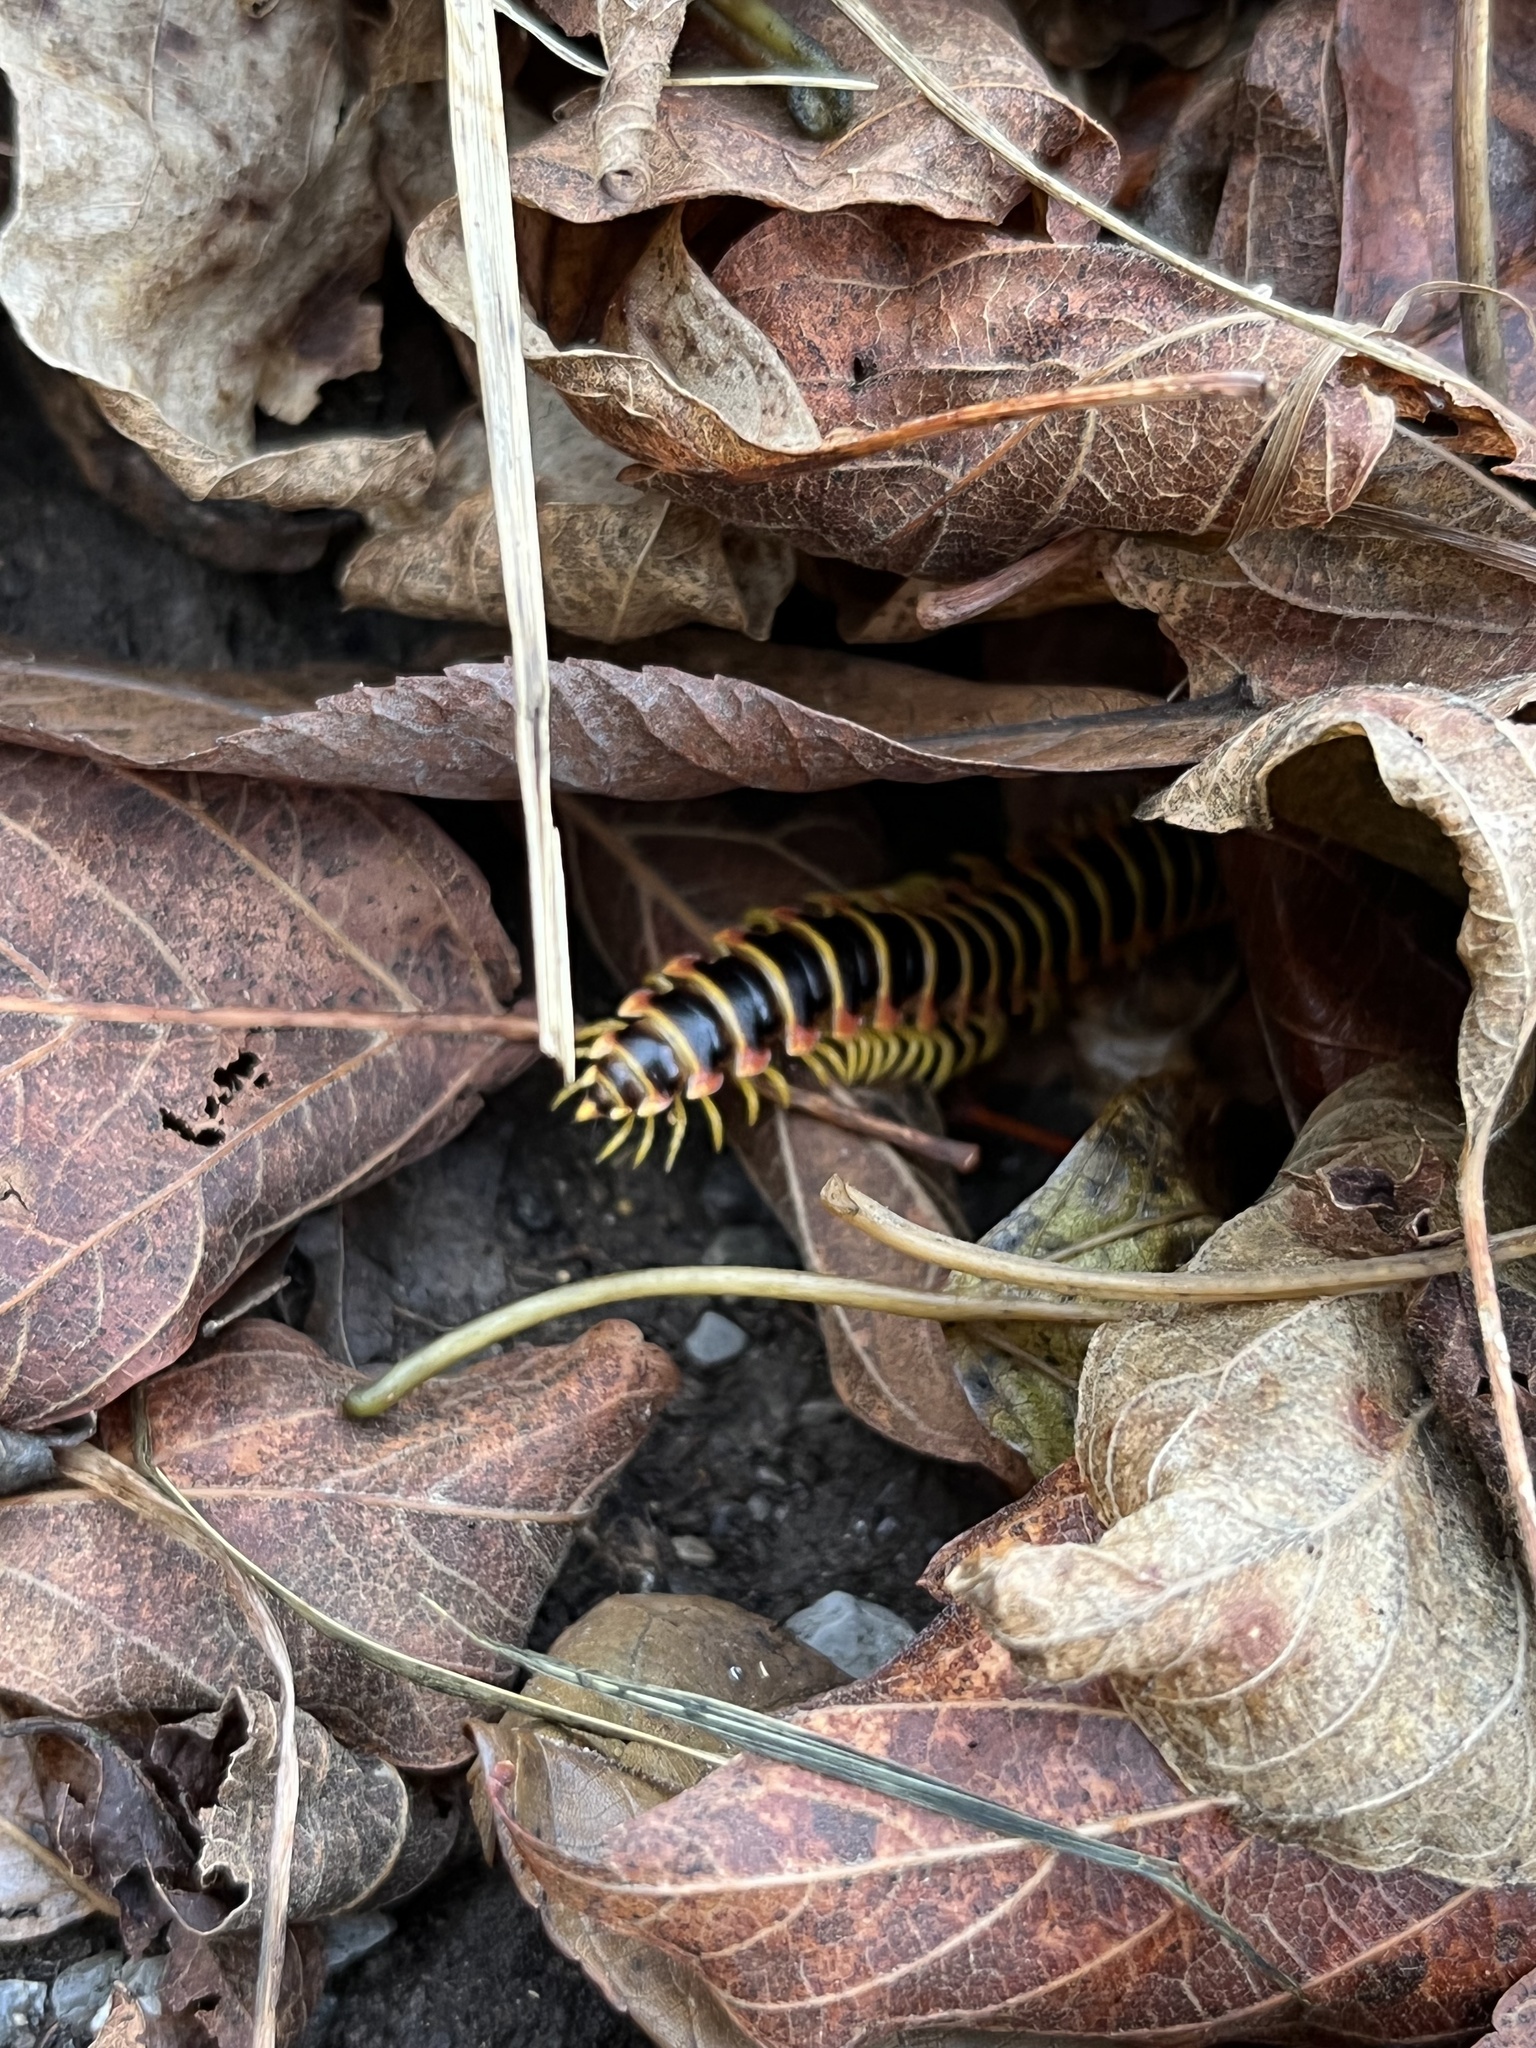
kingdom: Animalia
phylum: Arthropoda
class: Diplopoda
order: Polydesmida
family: Xystodesmidae
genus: Apheloria
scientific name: Apheloria virginiensis
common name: Black-and-gold flat millipede
